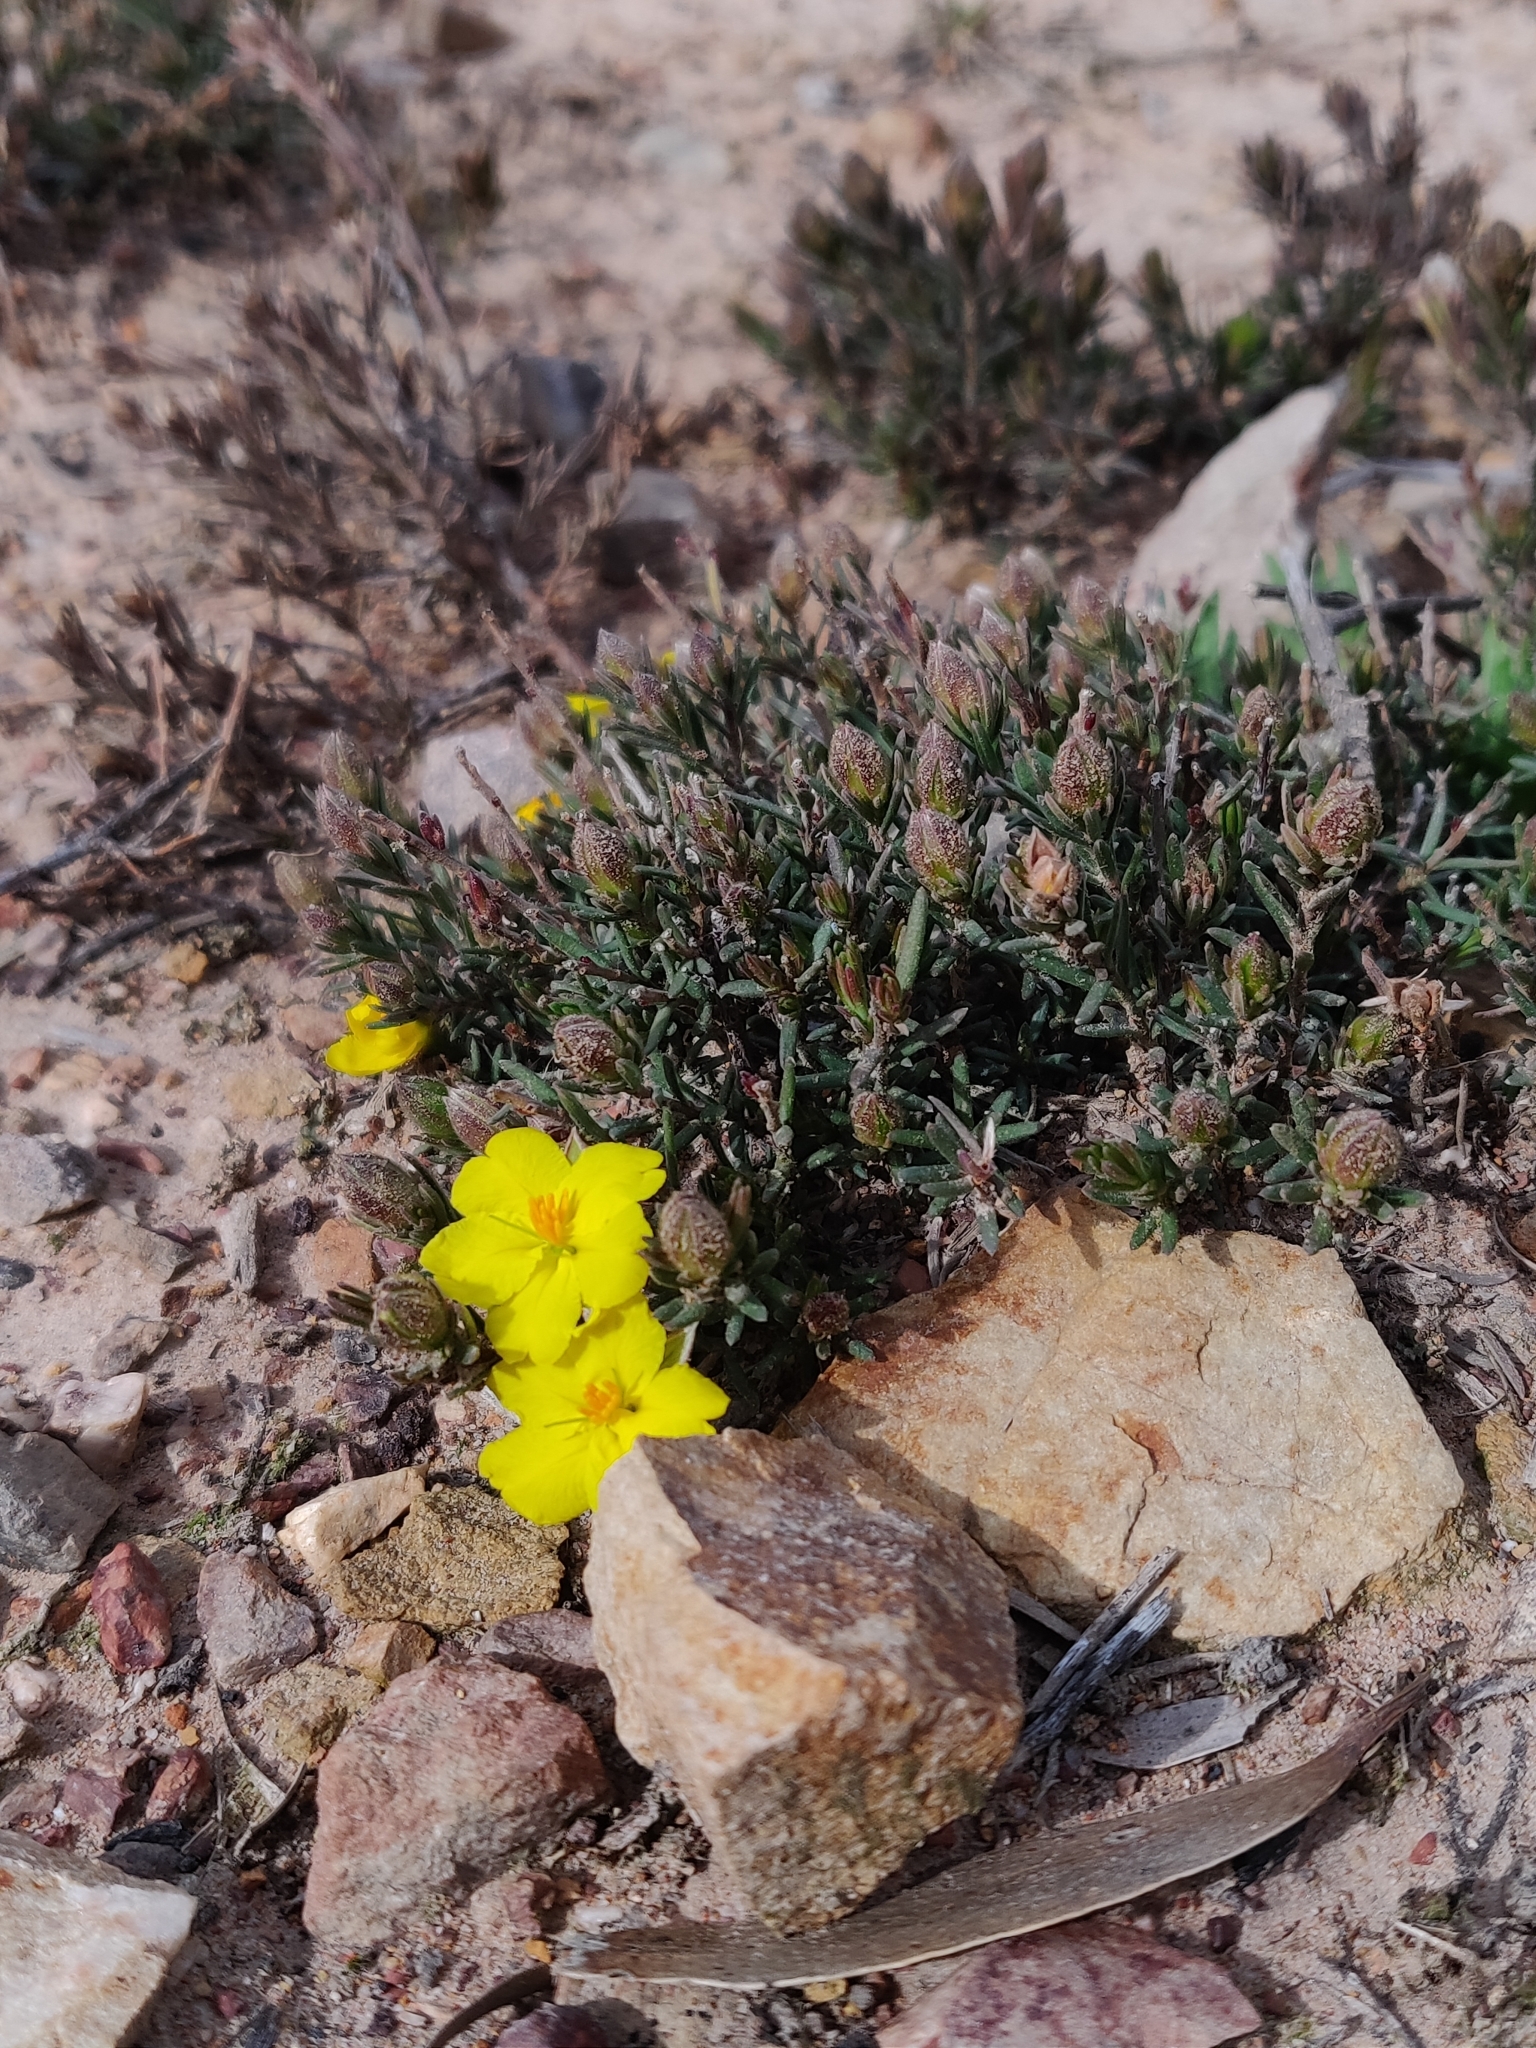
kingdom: Plantae
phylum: Tracheophyta
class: Magnoliopsida
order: Dilleniales
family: Dilleniaceae
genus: Hibbertia
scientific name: Hibbertia riparia
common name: Erect guinea-flower
